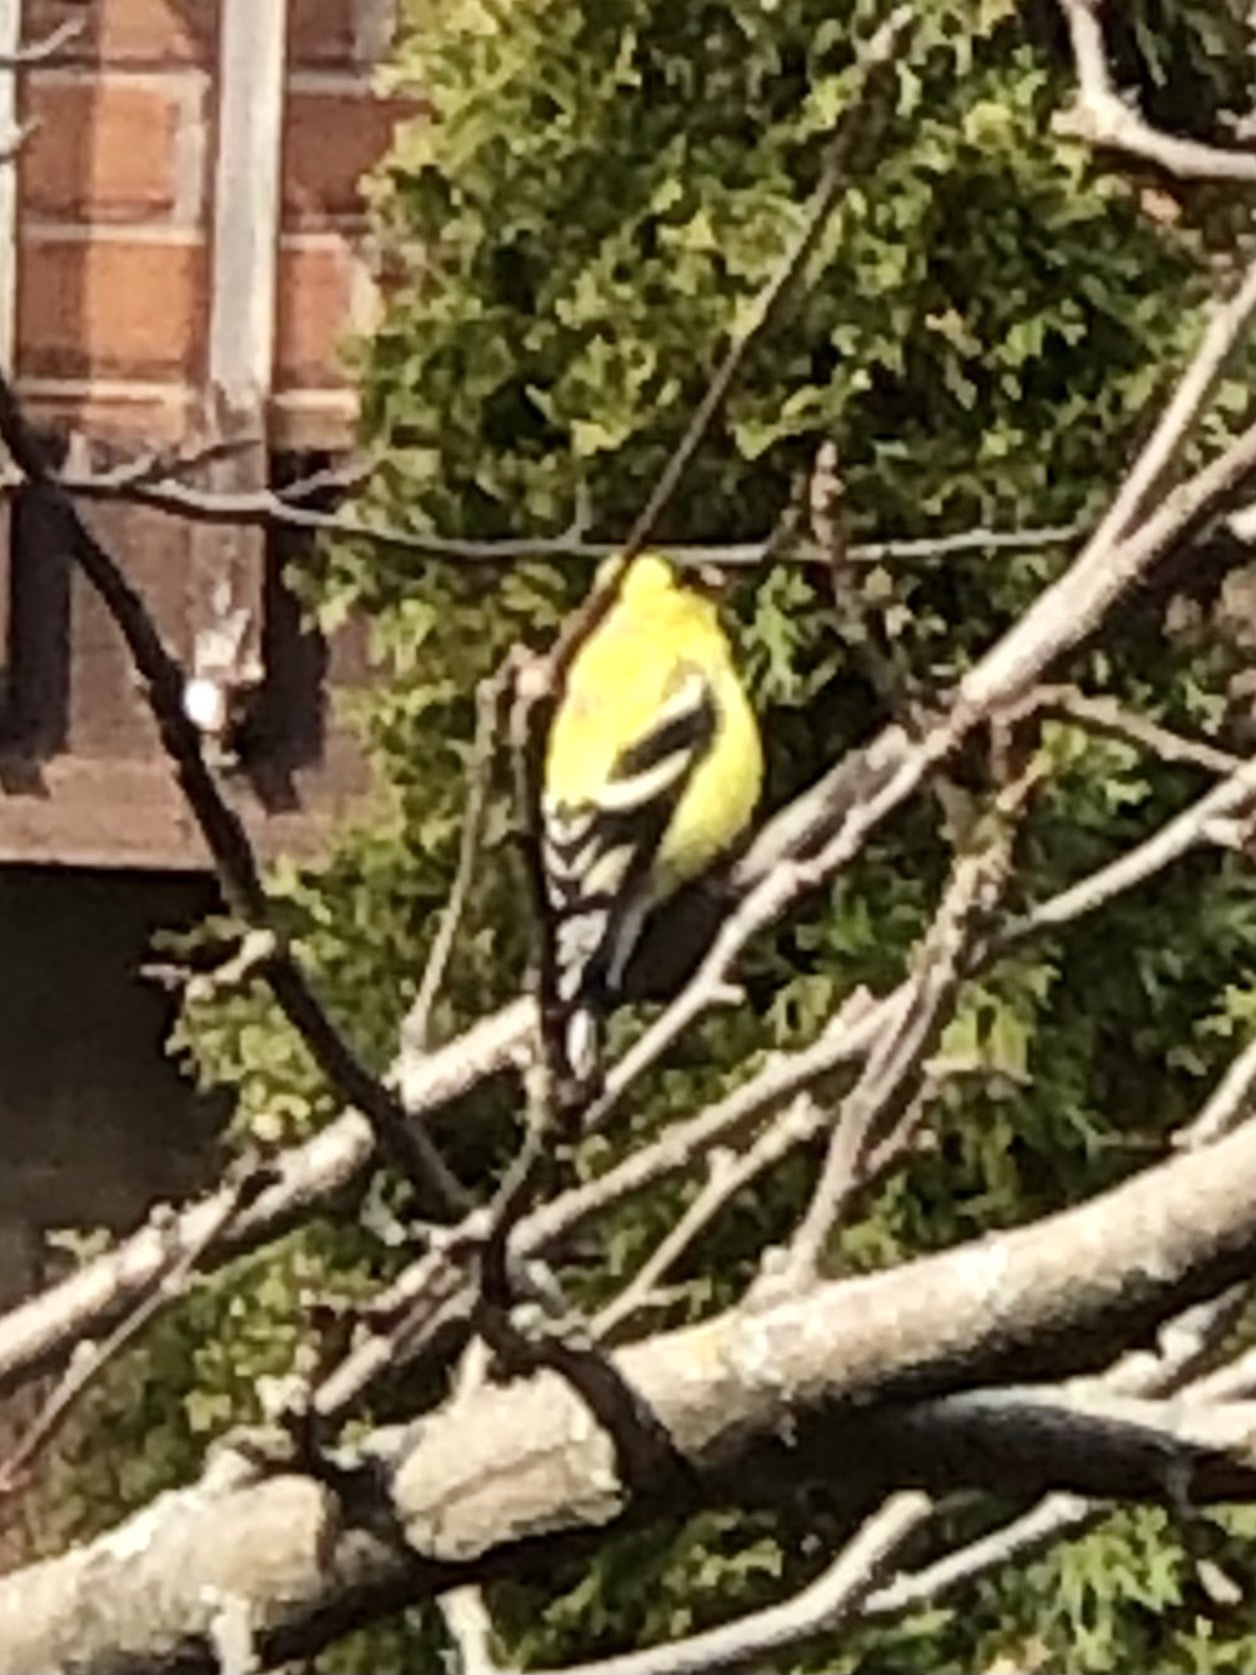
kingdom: Animalia
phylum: Chordata
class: Aves
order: Passeriformes
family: Fringillidae
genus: Spinus
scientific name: Spinus tristis
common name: American goldfinch
